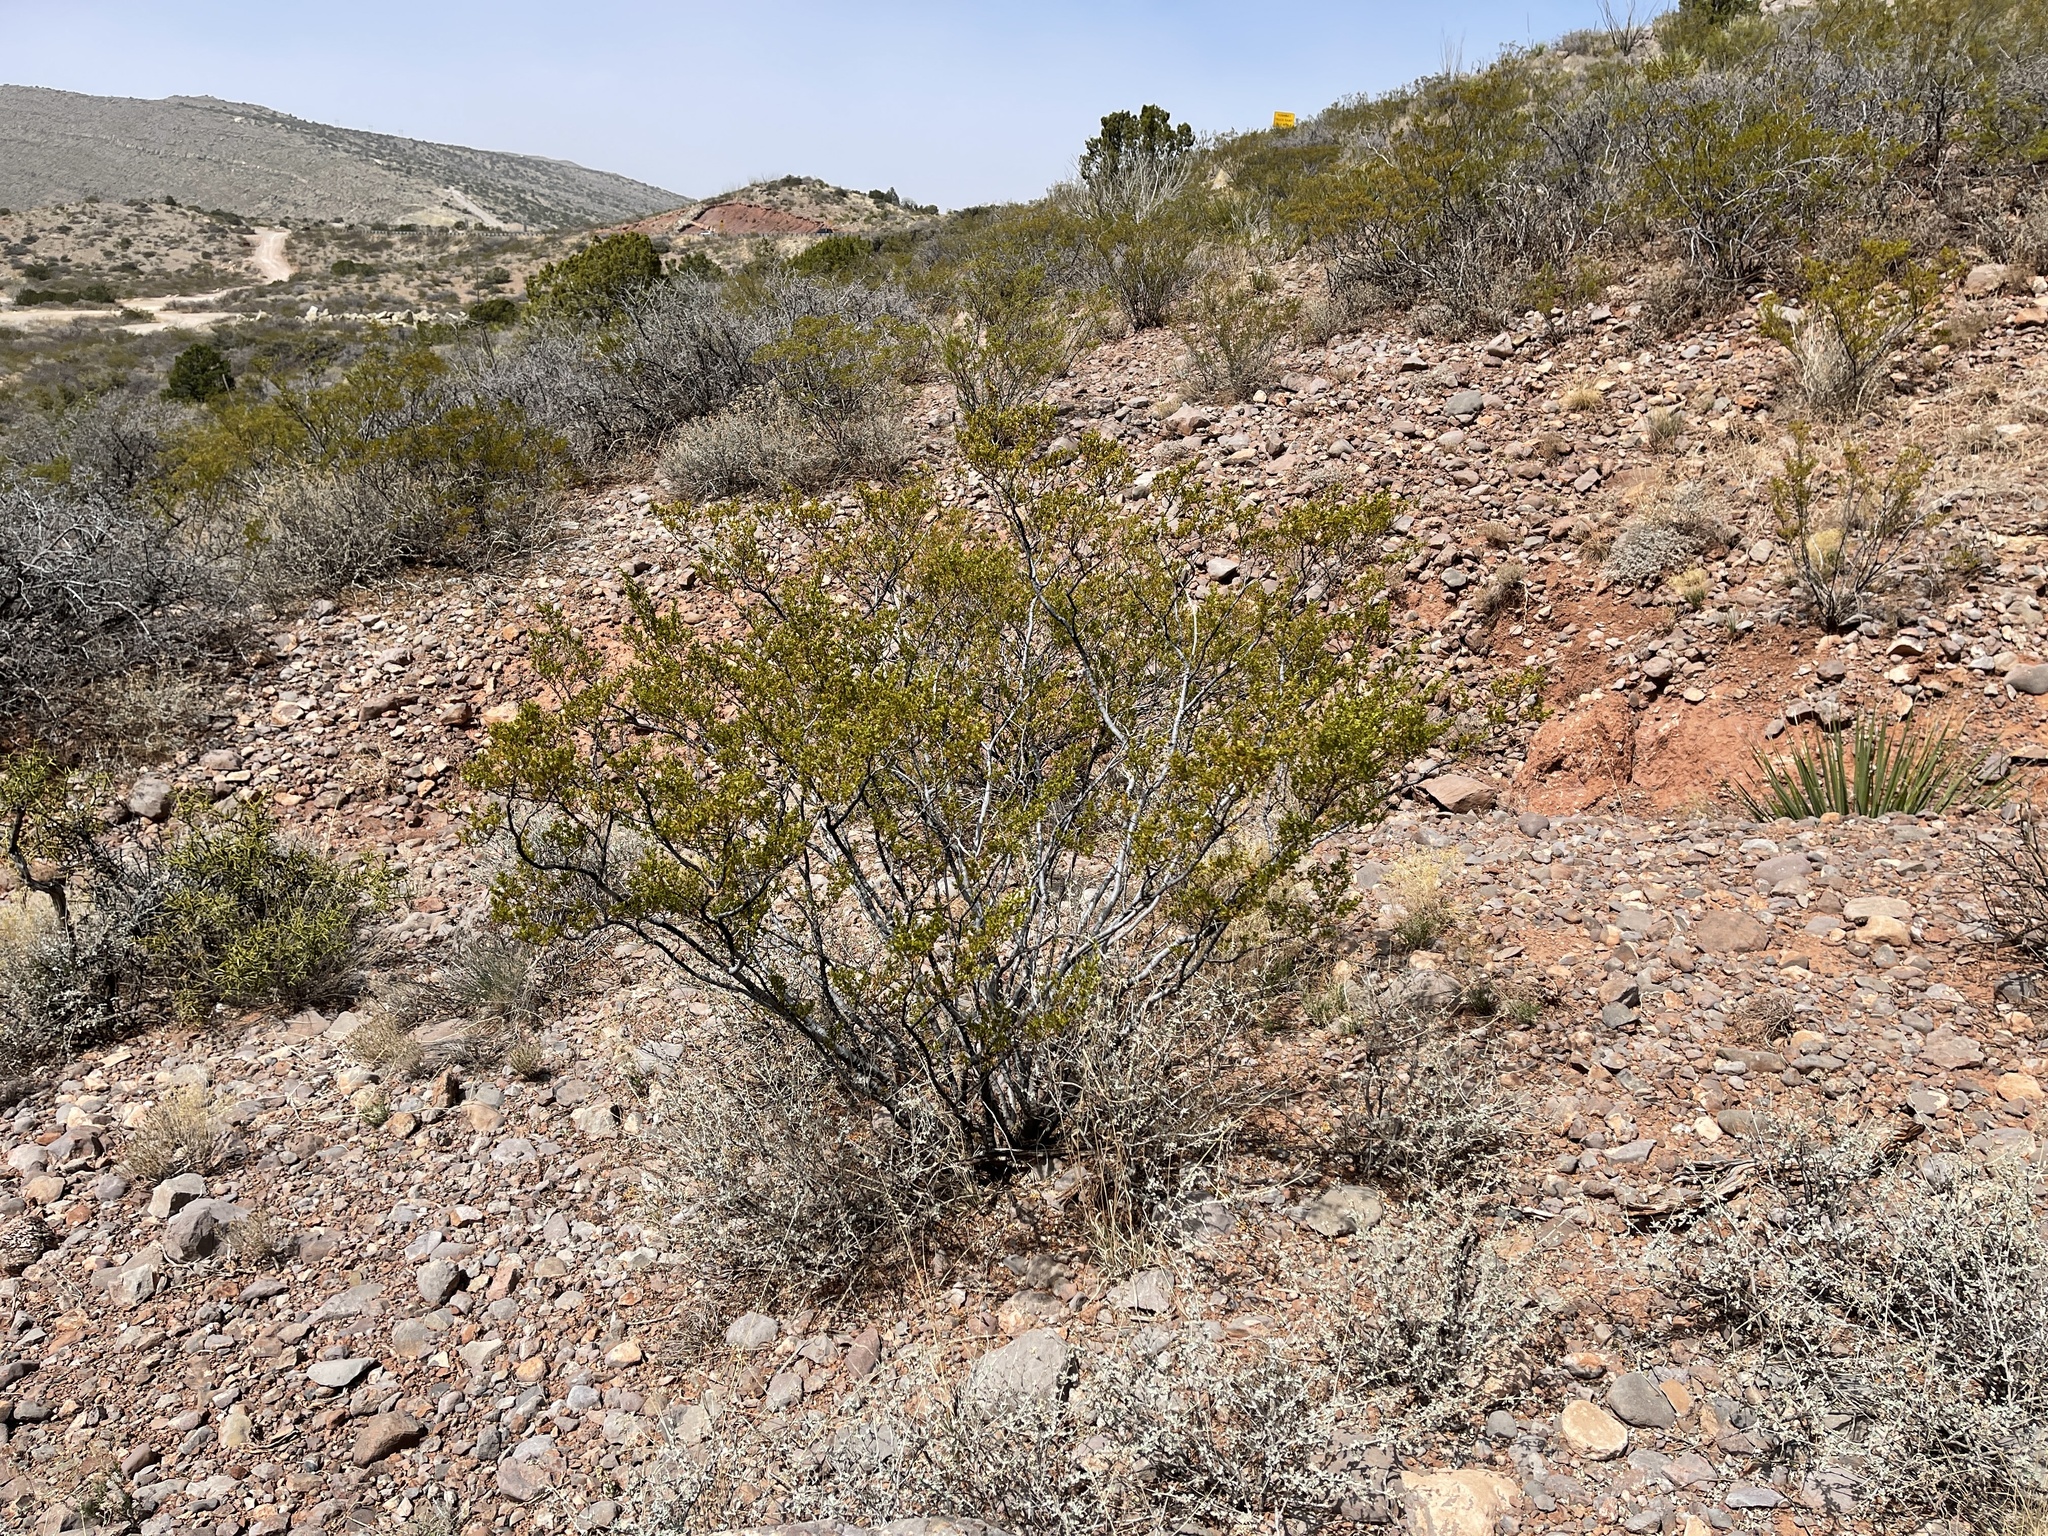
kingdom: Plantae
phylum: Tracheophyta
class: Magnoliopsida
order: Zygophyllales
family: Zygophyllaceae
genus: Larrea
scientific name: Larrea tridentata
